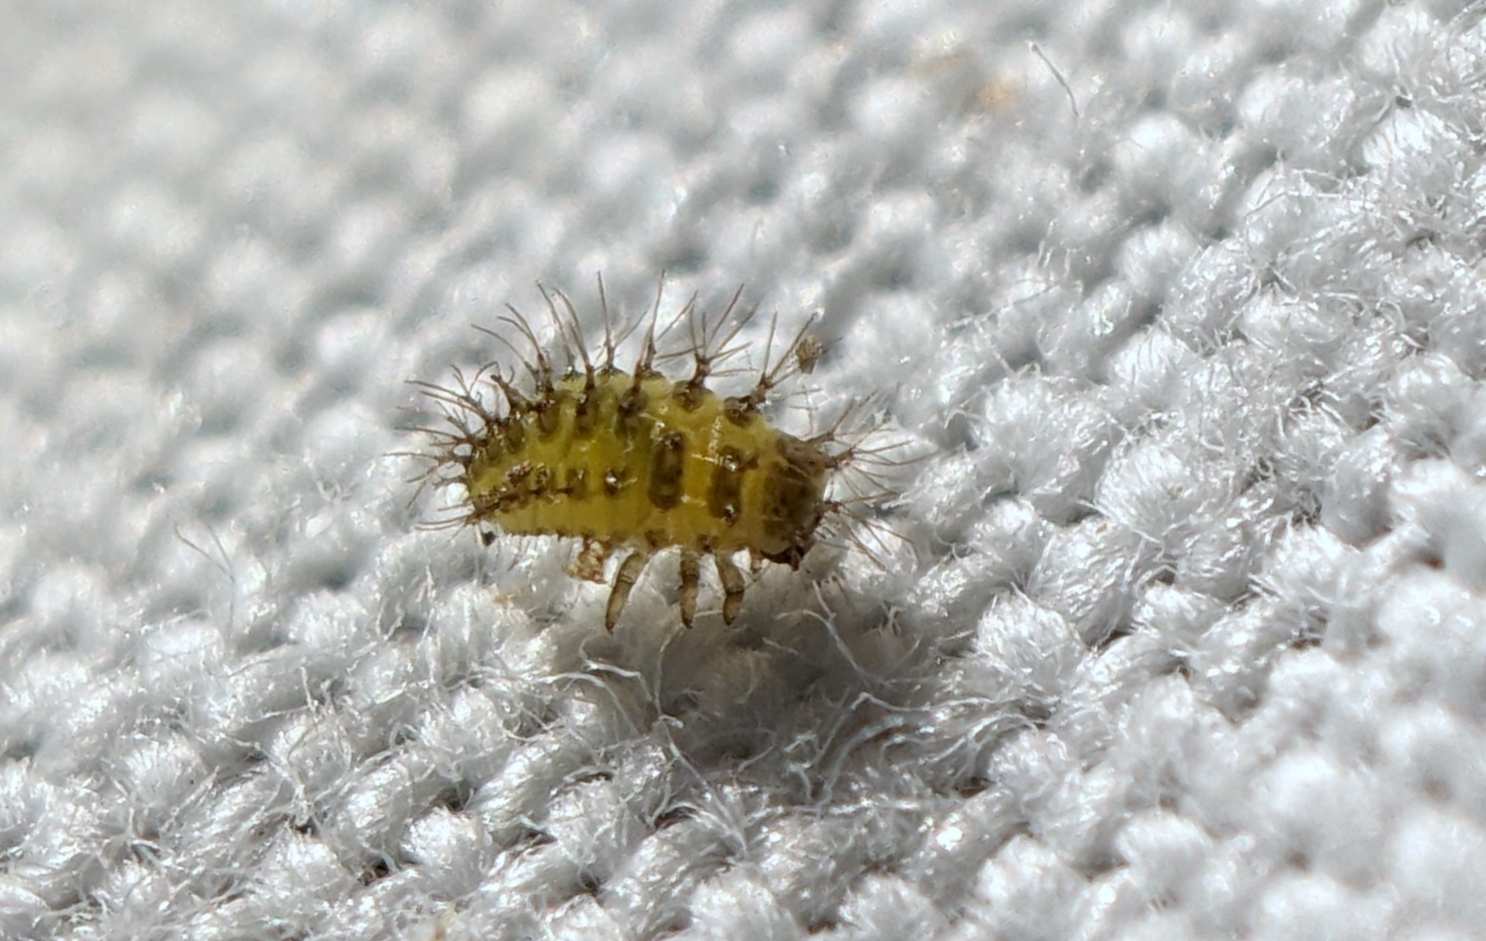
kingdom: Animalia
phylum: Arthropoda
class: Insecta
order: Coleoptera
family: Coccinellidae
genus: Subcoccinella
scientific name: Subcoccinella vigintiquatuorpunctata
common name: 24-spot ladybird
